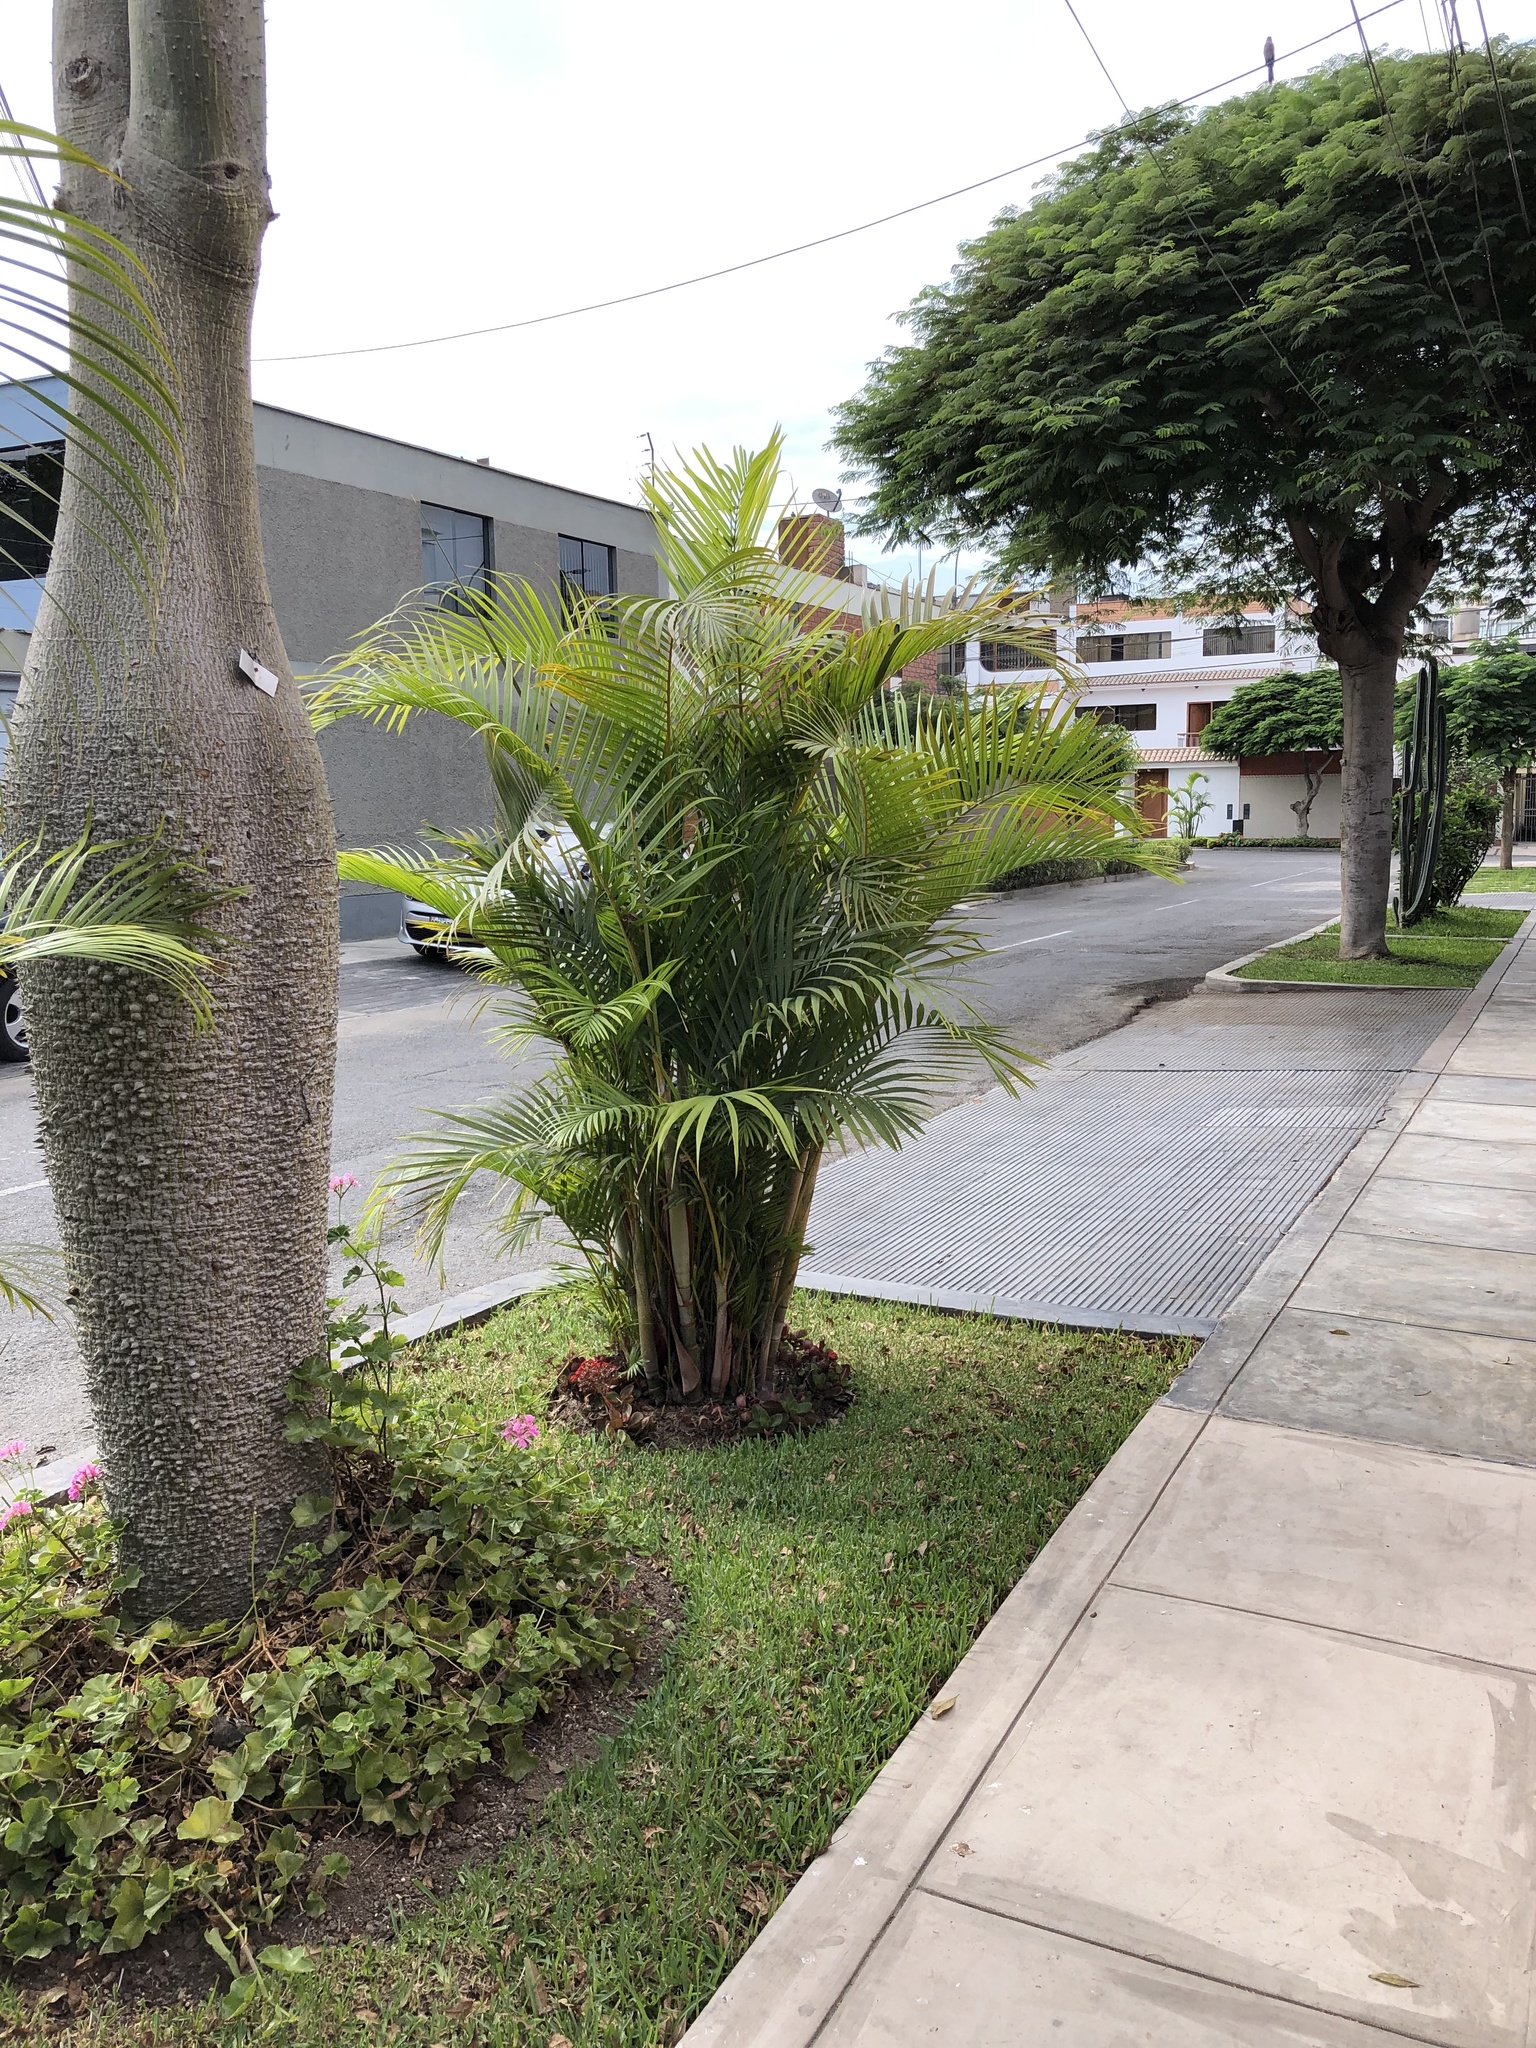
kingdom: Animalia
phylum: Chordata
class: Aves
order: Passeriformes
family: Mimidae
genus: Mimus
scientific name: Mimus longicaudatus
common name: Long-tailed mockingbird
